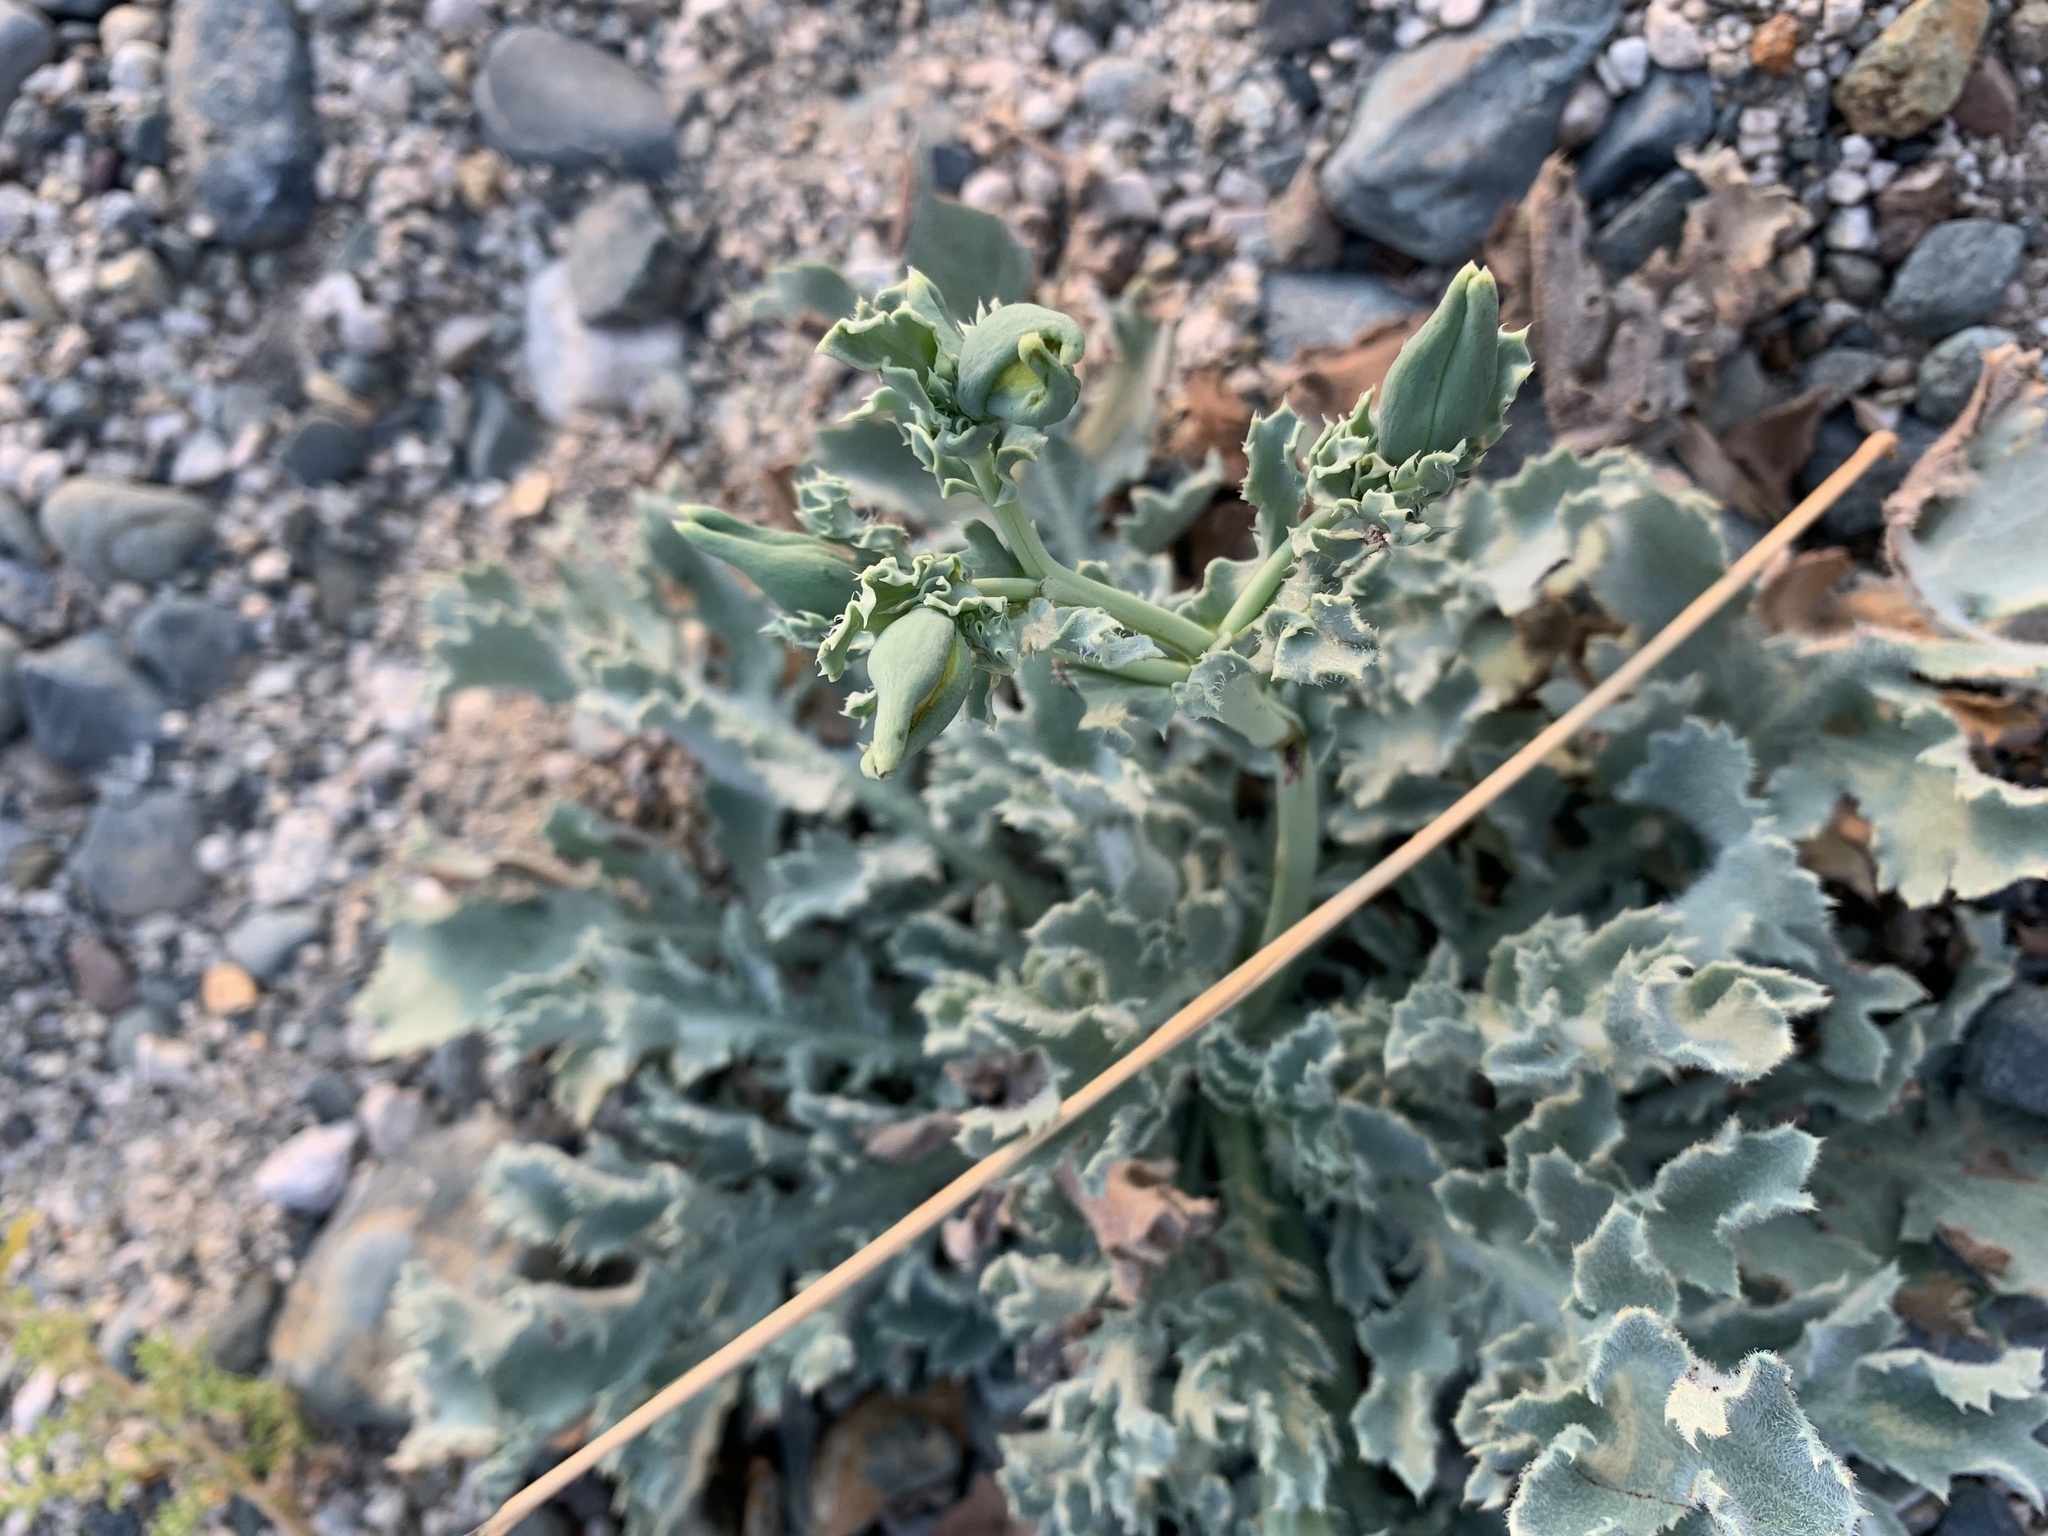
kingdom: Plantae
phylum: Tracheophyta
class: Magnoliopsida
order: Ranunculales
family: Papaveraceae
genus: Glaucium
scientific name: Glaucium flavum
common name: Yellow horned-poppy
